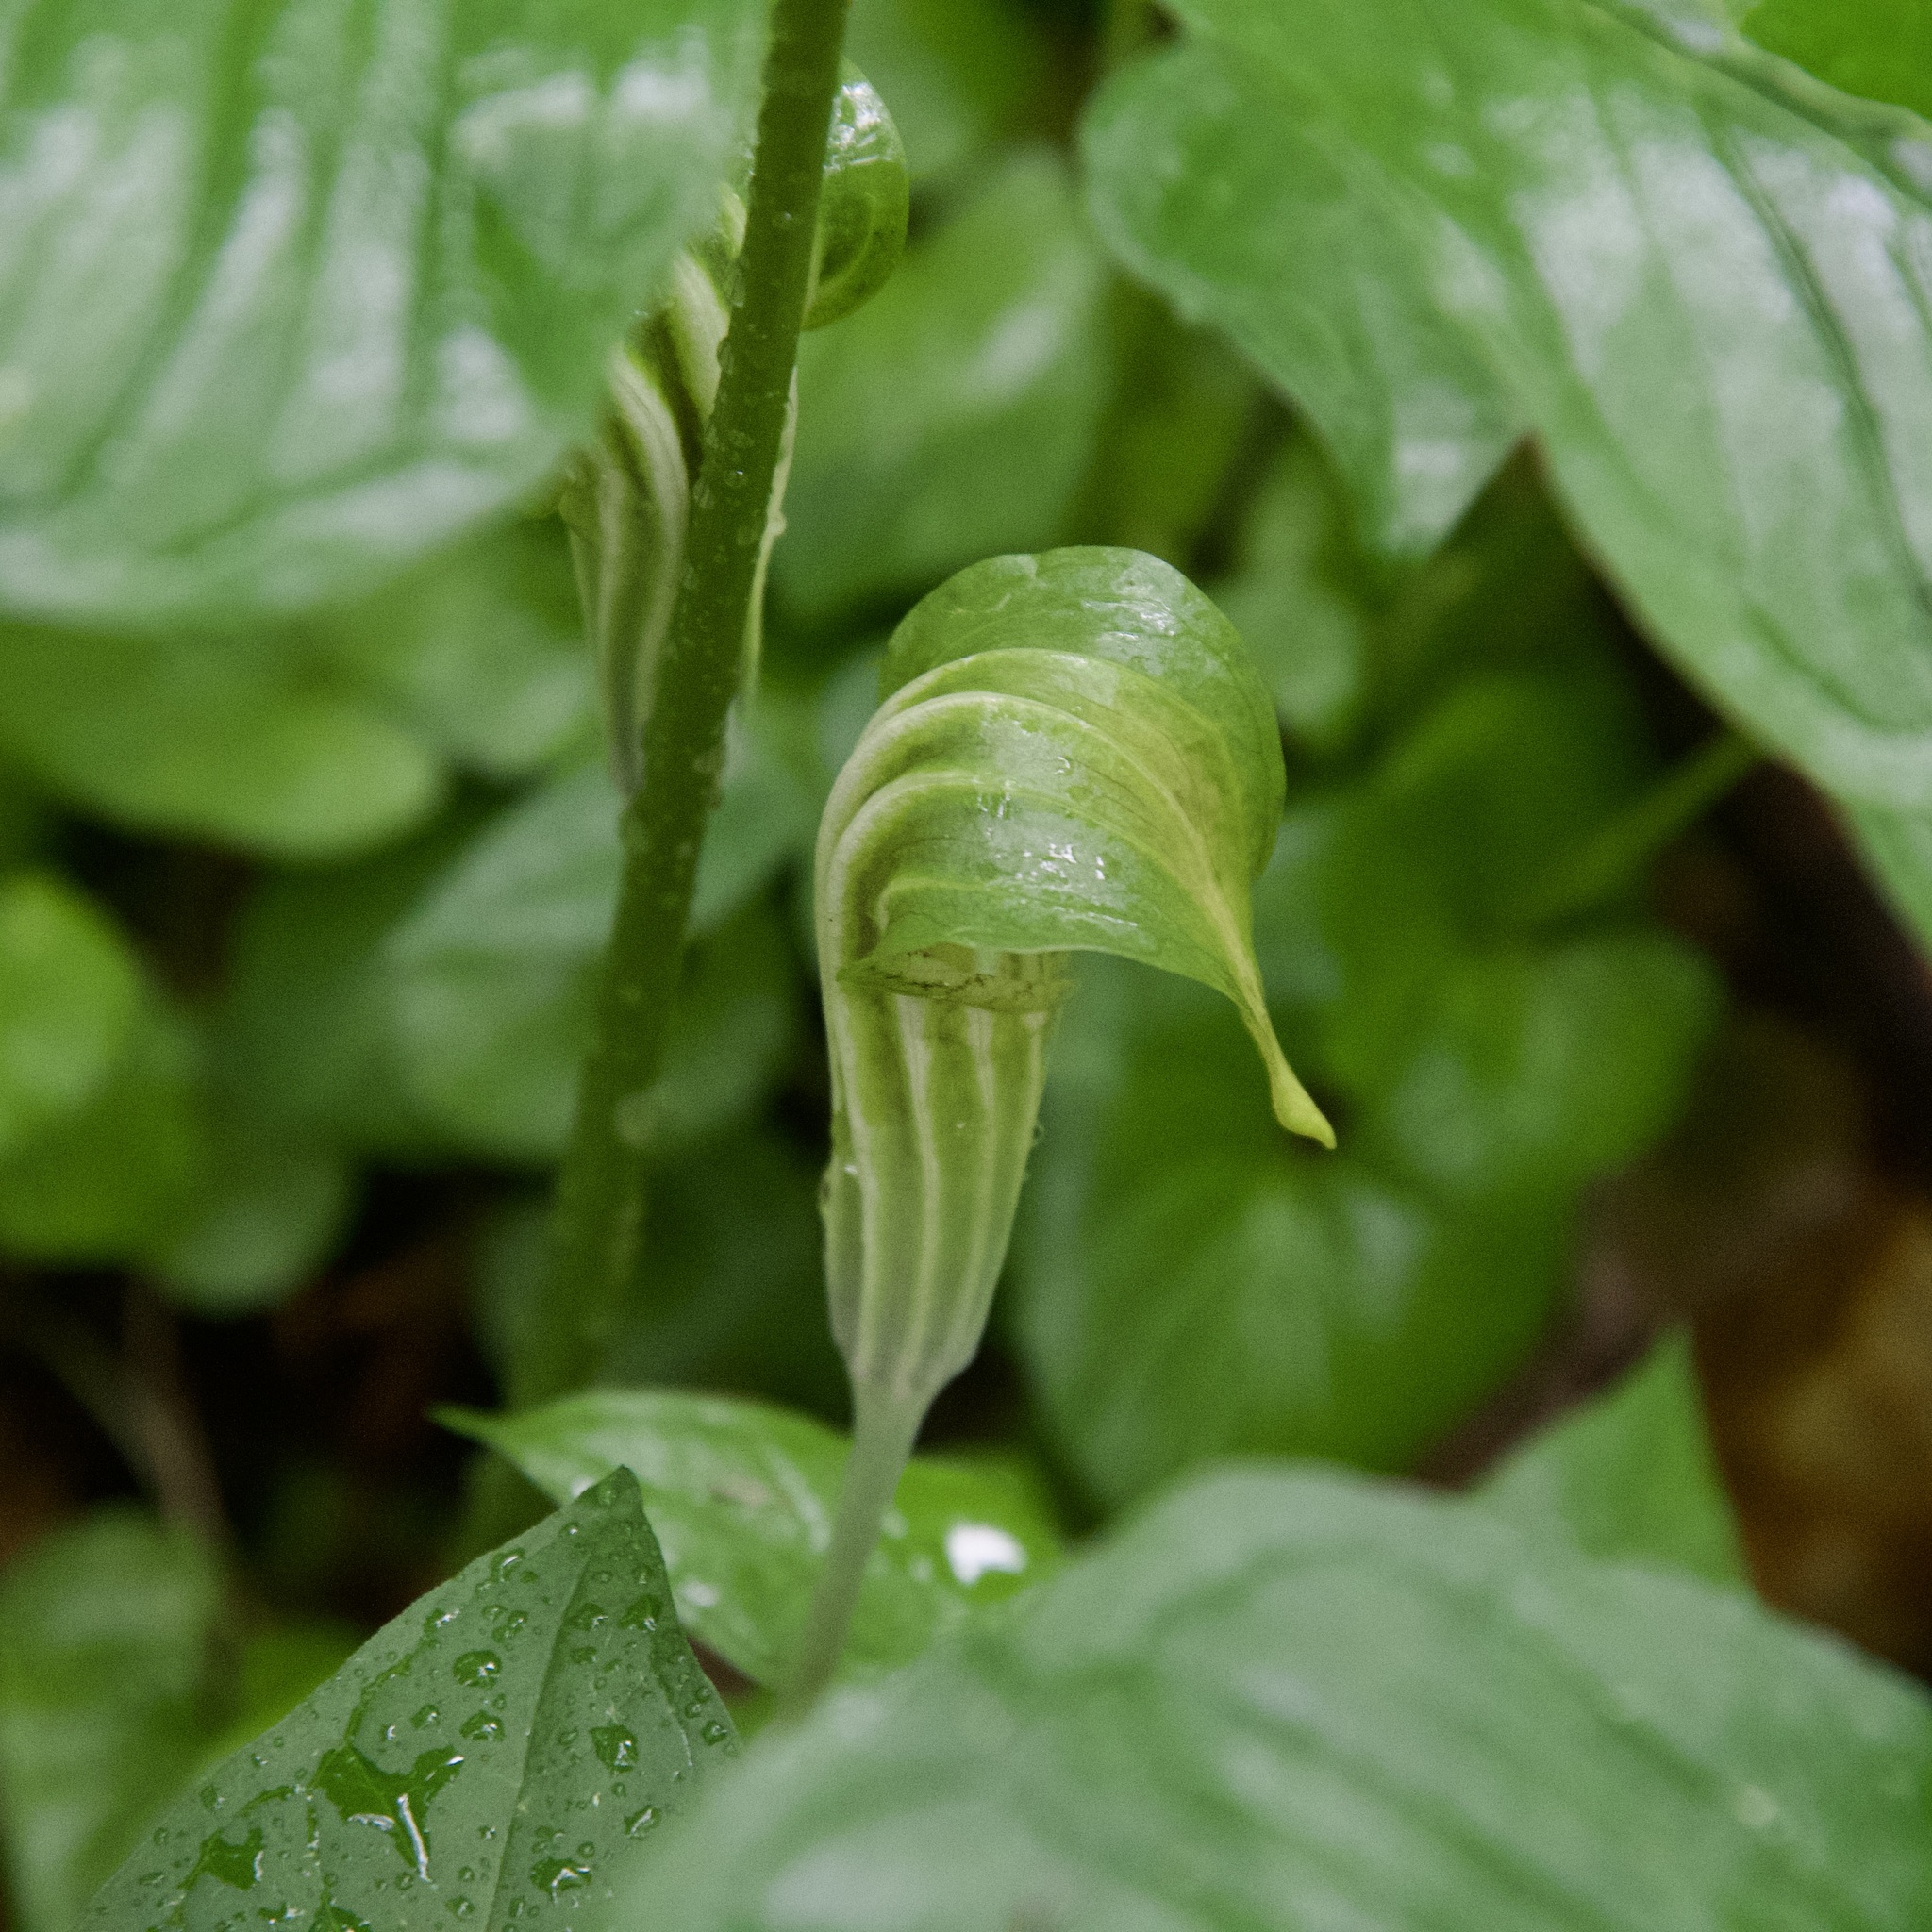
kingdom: Plantae
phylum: Tracheophyta
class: Liliopsida
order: Alismatales
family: Araceae
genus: Arisaema
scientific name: Arisaema stewardsonii
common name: Swamp jack-in-the-pulpit
